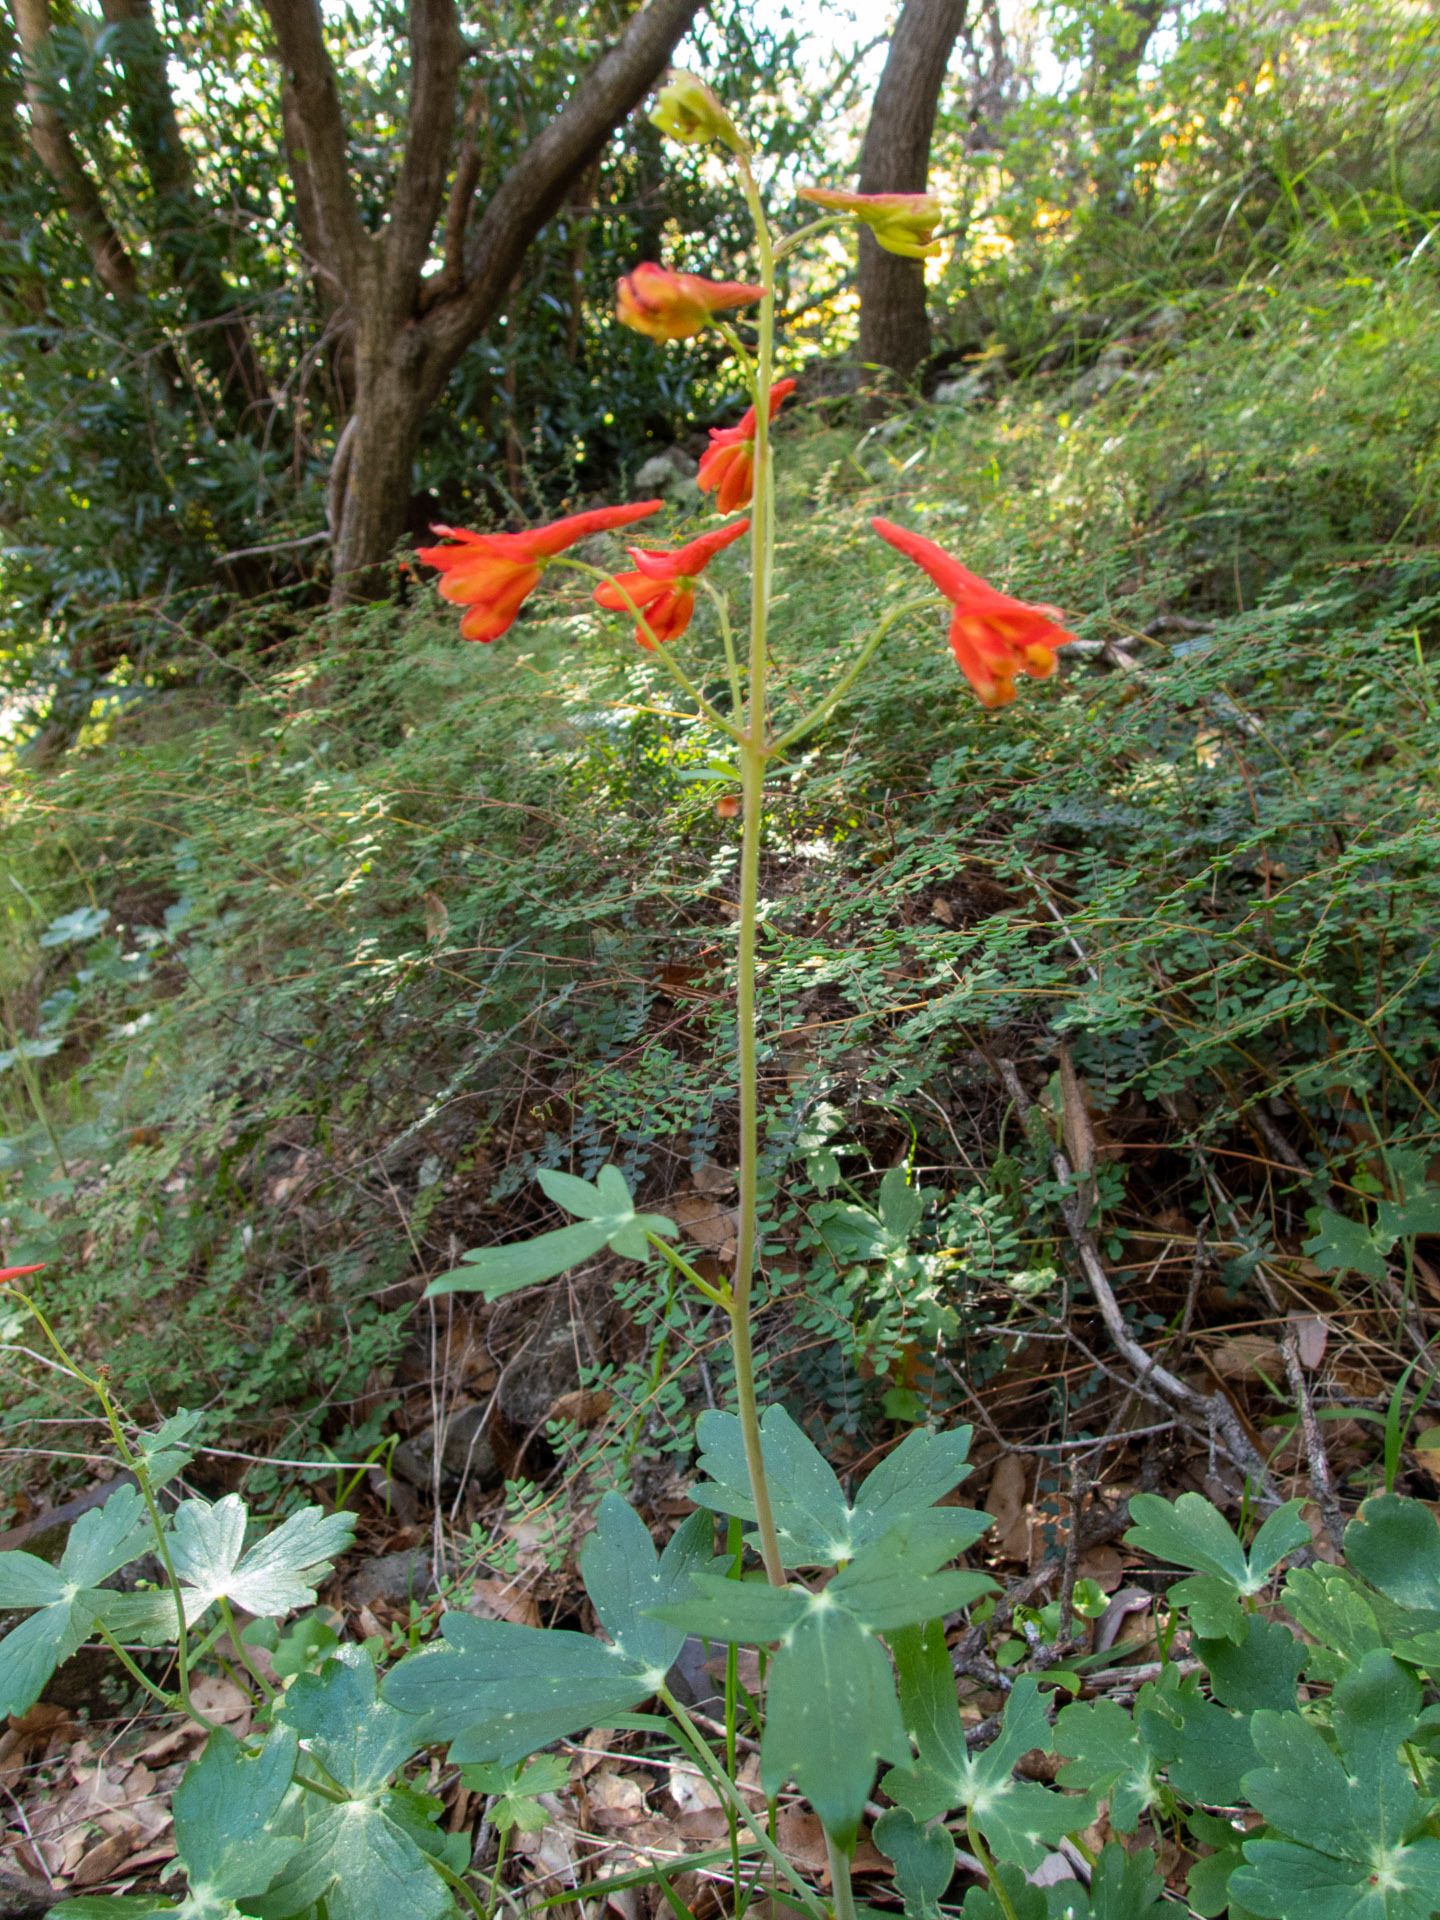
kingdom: Plantae
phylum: Tracheophyta
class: Magnoliopsida
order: Ranunculales
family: Ranunculaceae
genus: Delphinium
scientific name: Delphinium nudicaule
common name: Red larkspur
